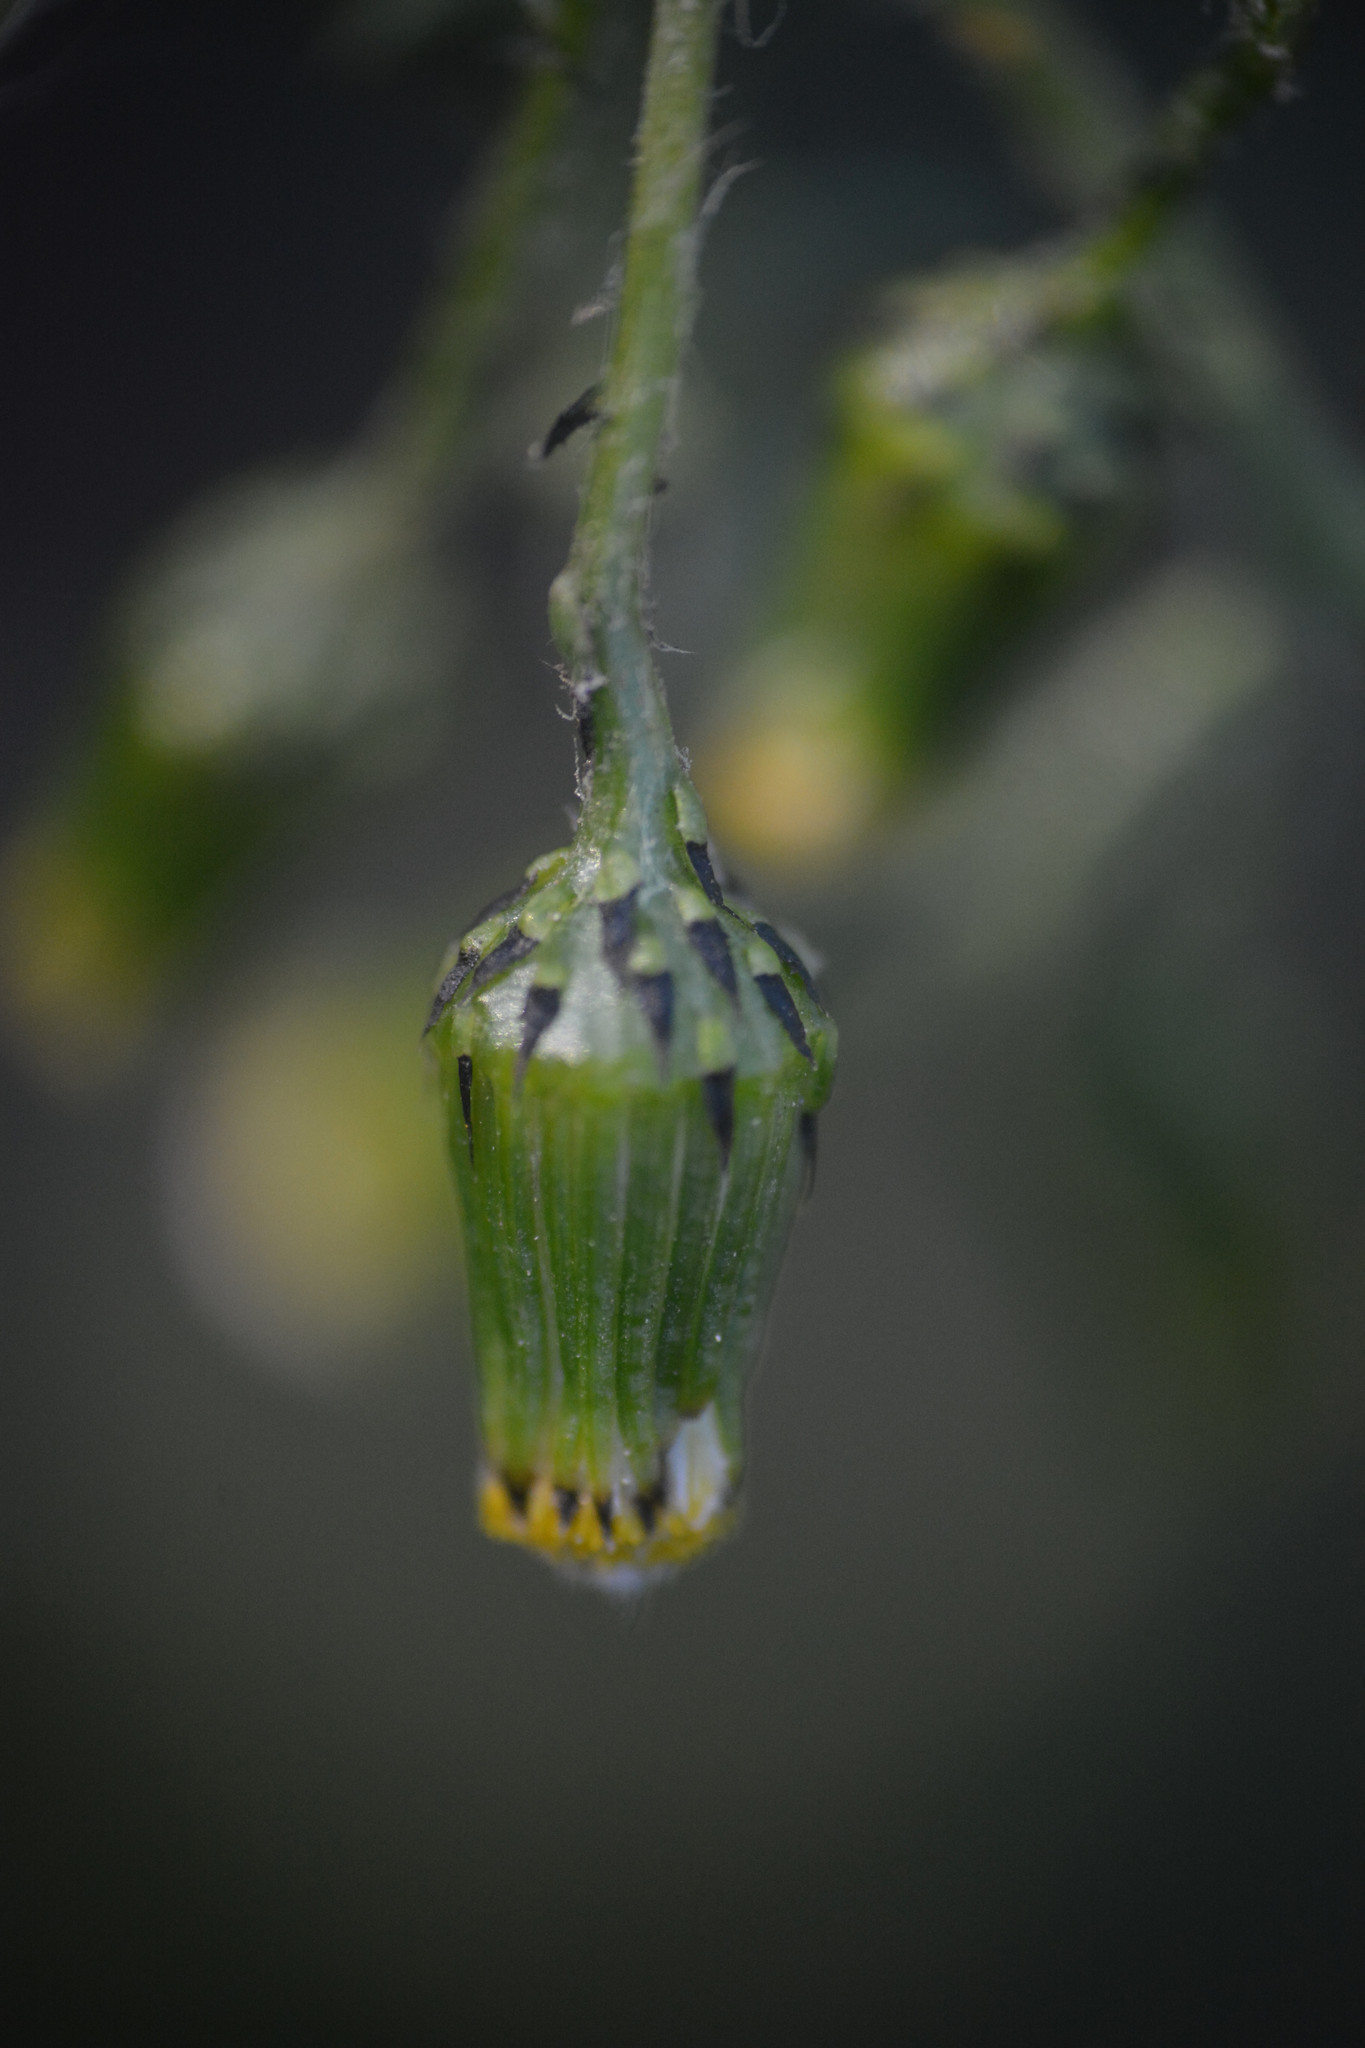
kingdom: Plantae
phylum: Tracheophyta
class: Magnoliopsida
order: Asterales
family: Asteraceae
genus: Senecio
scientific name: Senecio vulgaris
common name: Old-man-in-the-spring
